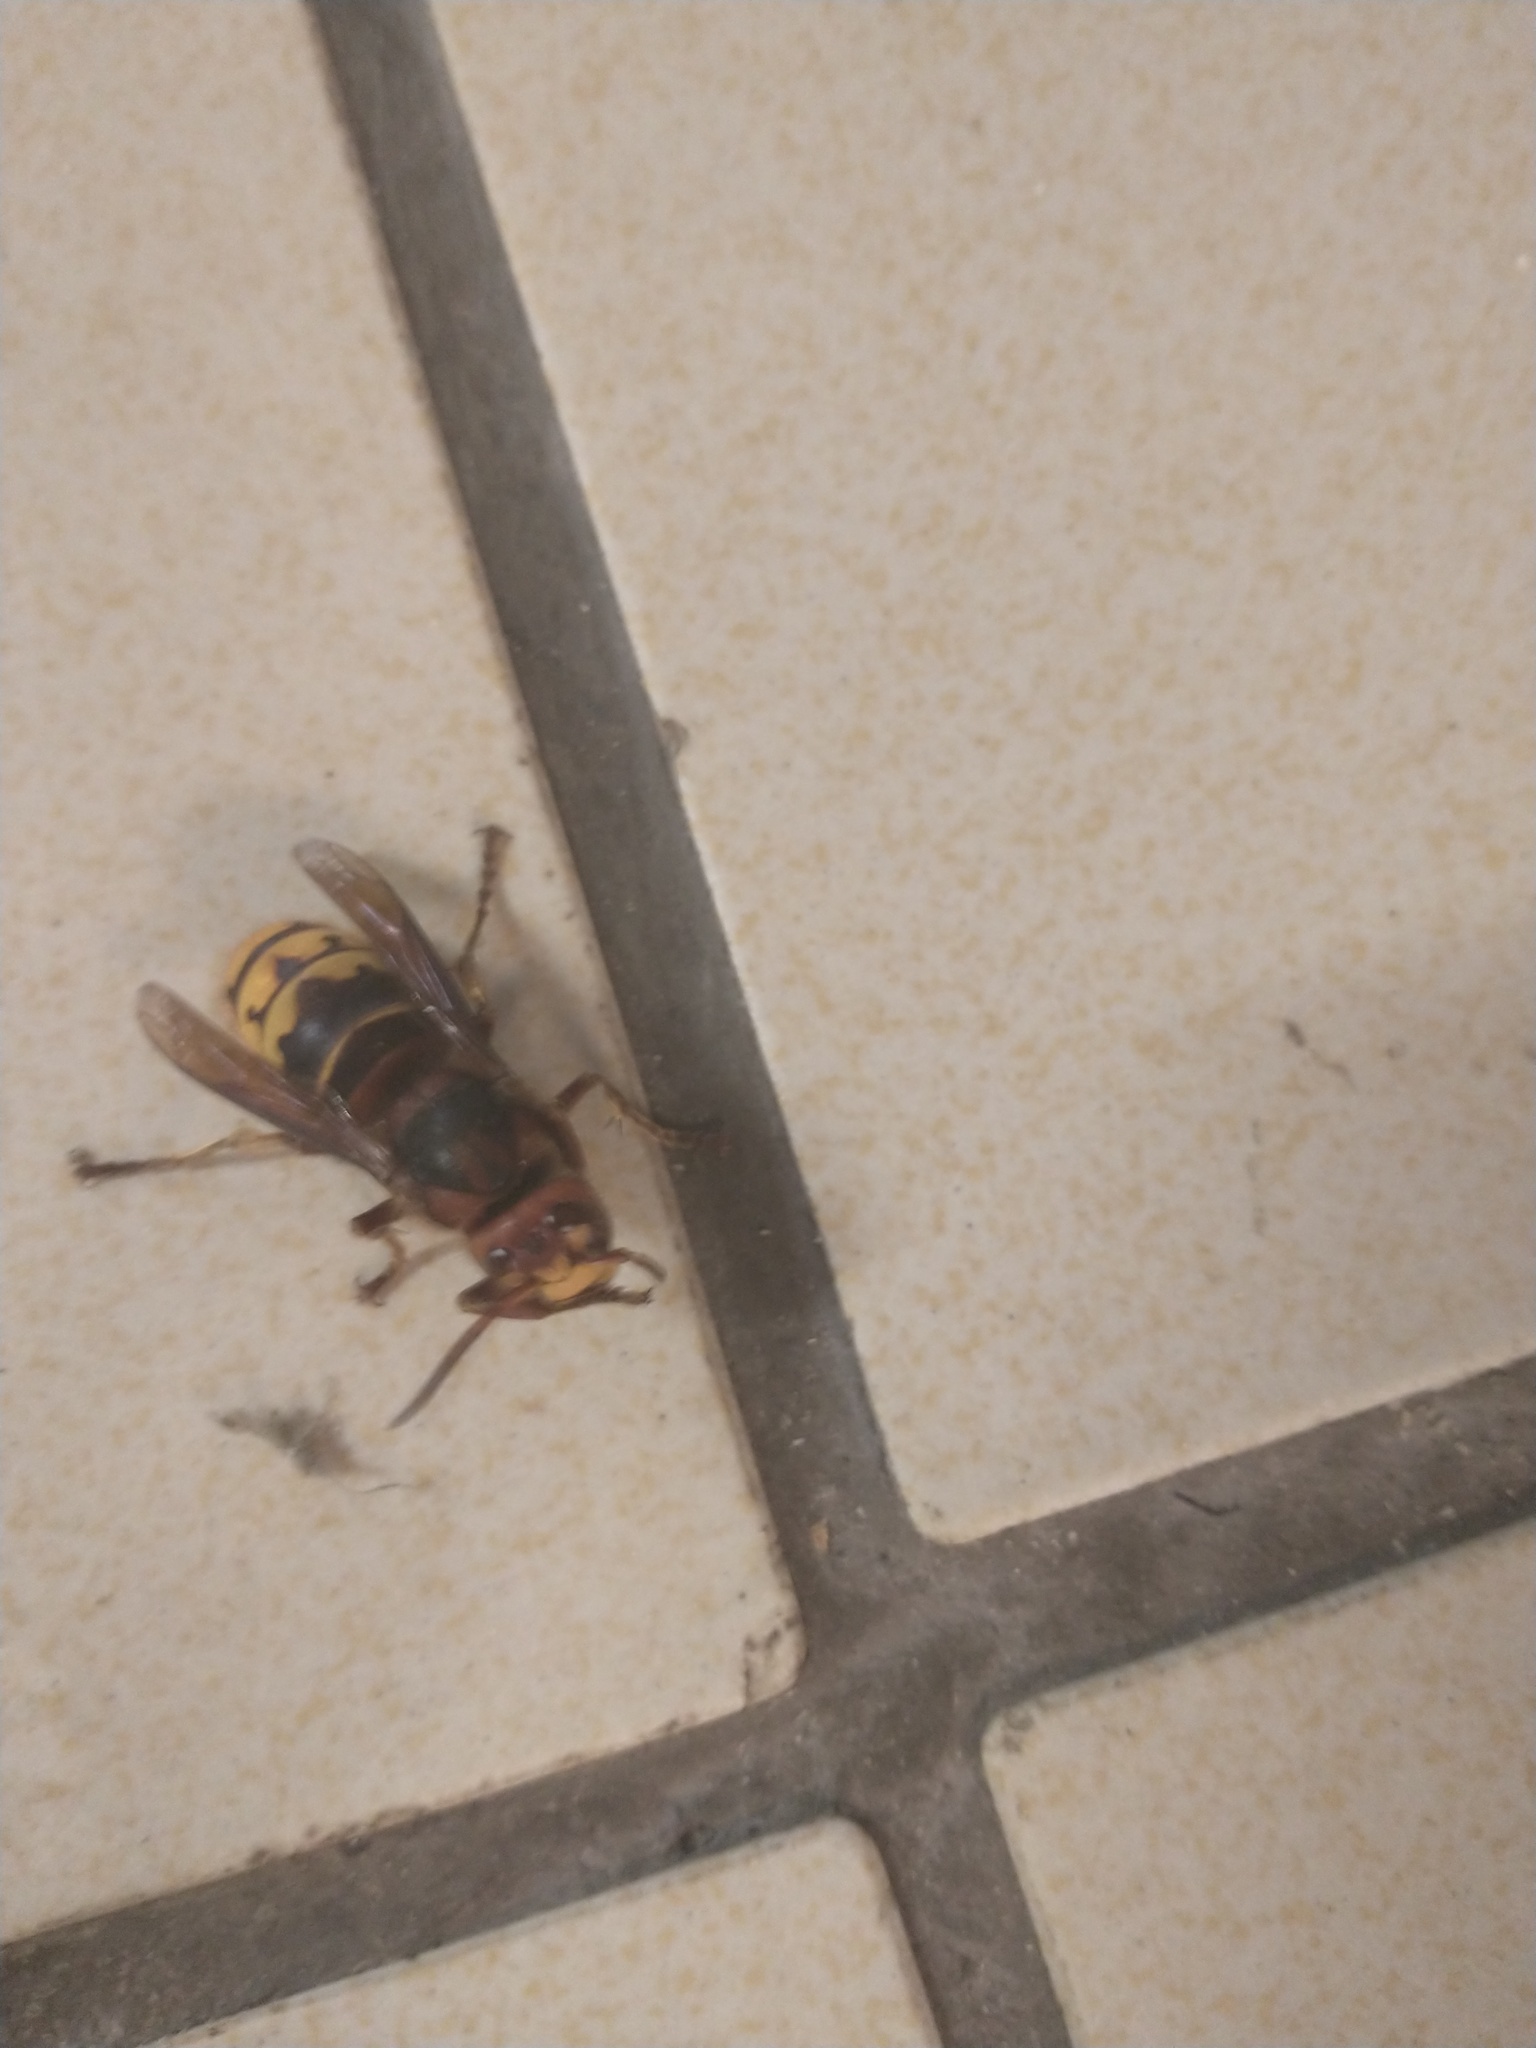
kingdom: Animalia
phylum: Arthropoda
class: Insecta
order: Hymenoptera
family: Vespidae
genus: Vespa
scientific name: Vespa crabro
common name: Hornet
